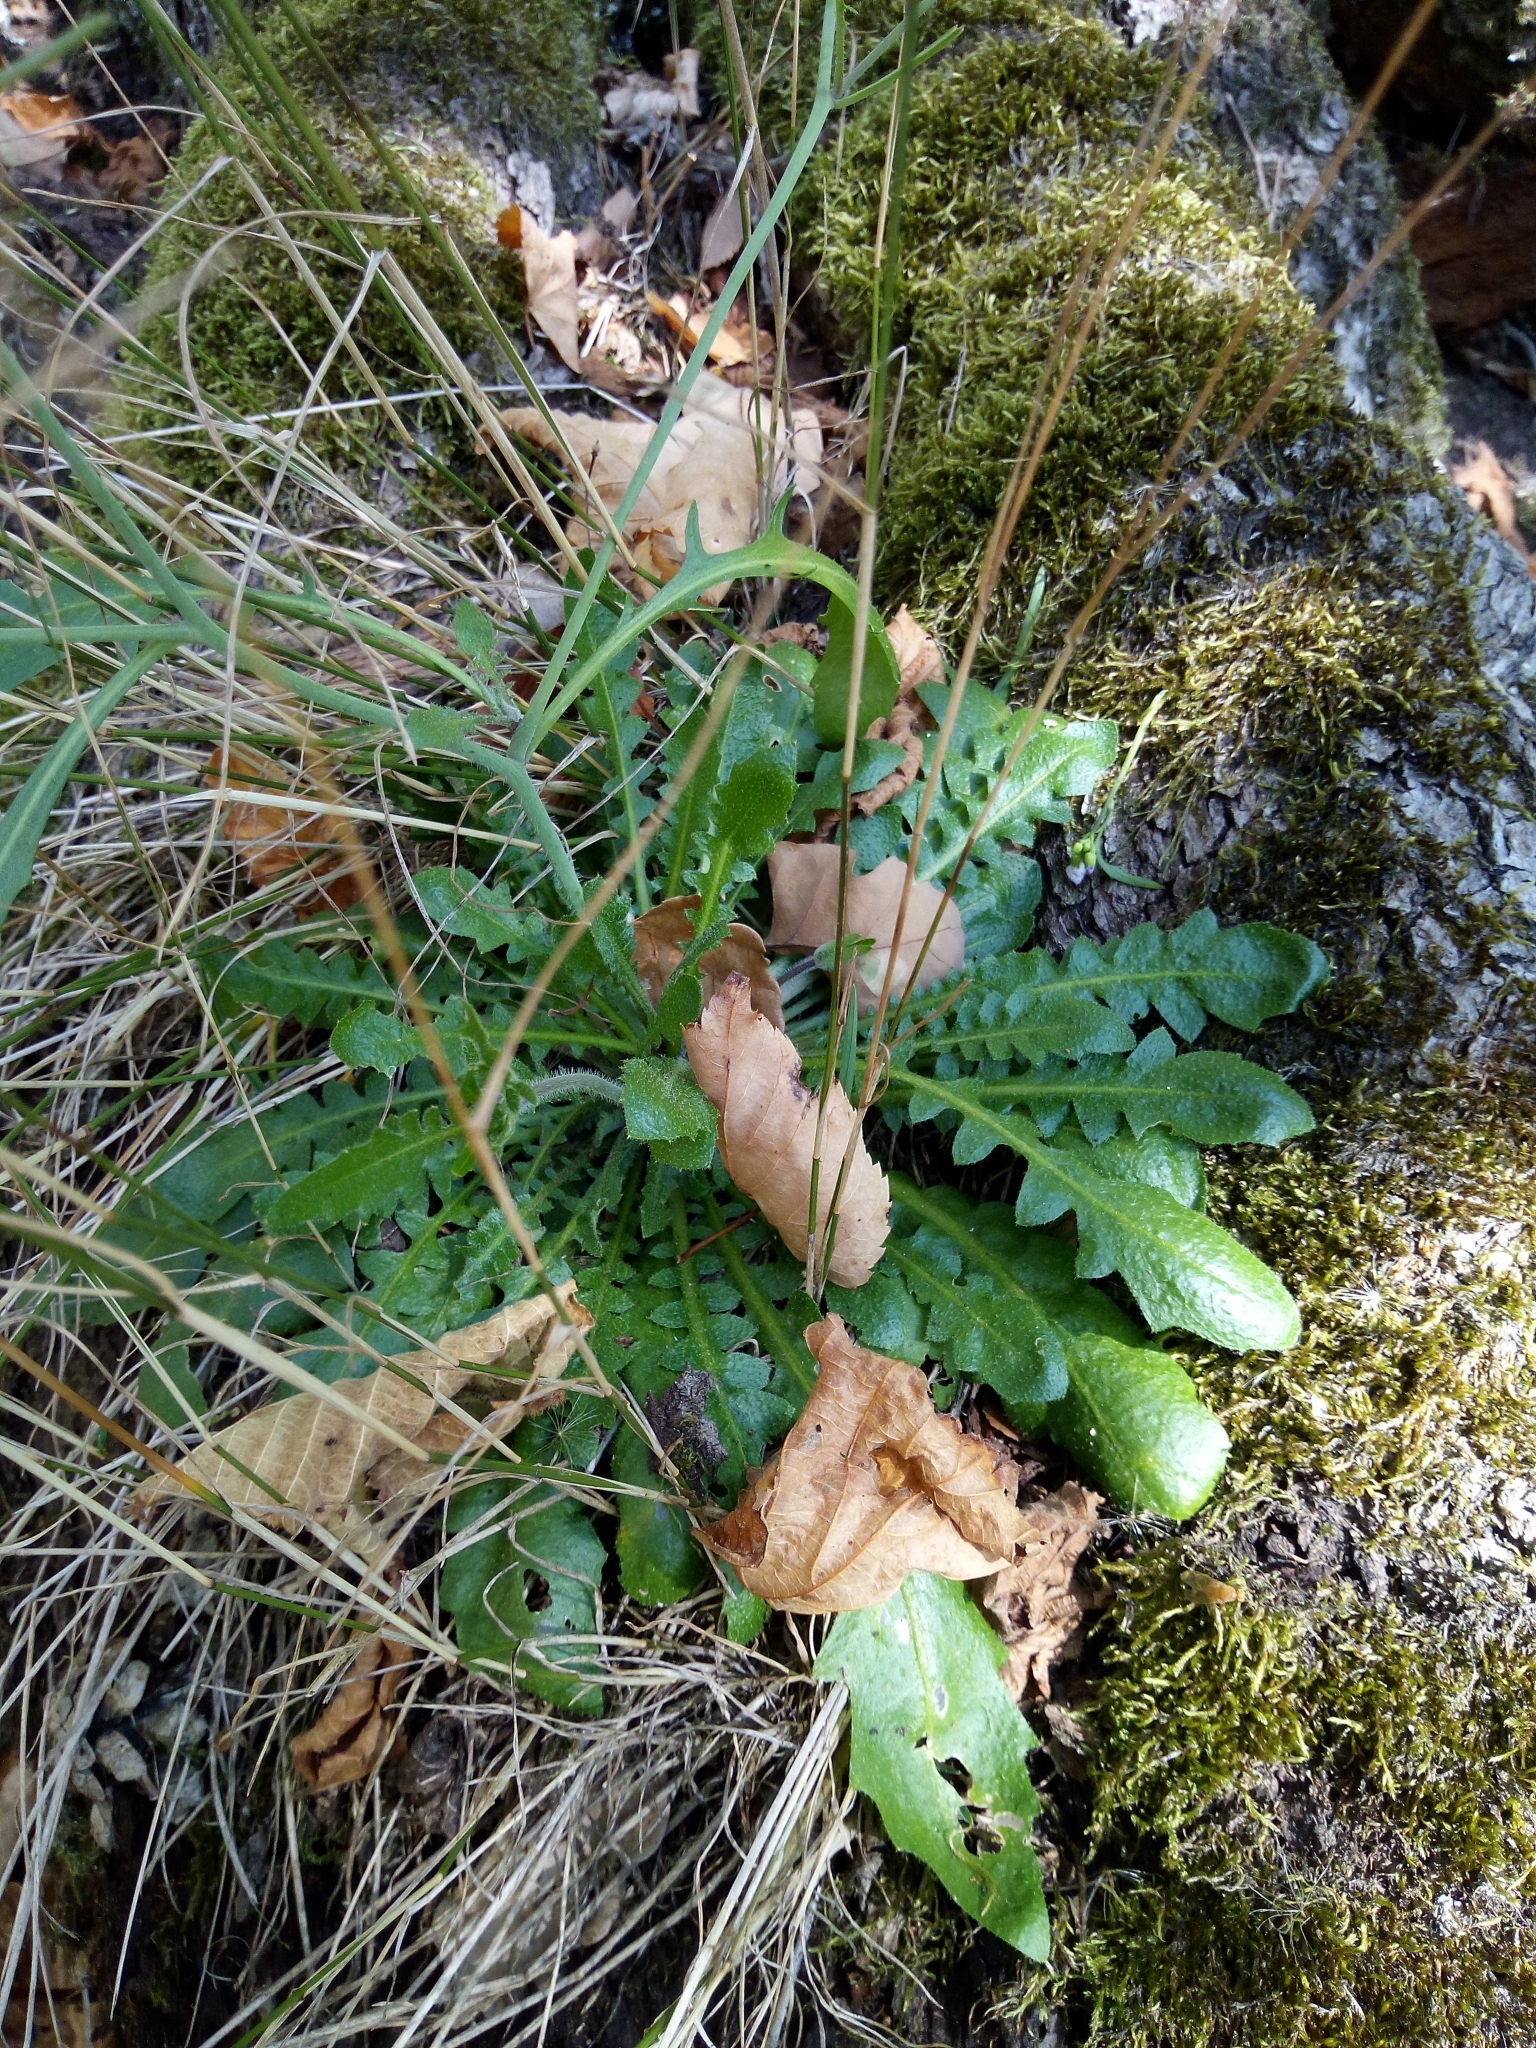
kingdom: Plantae
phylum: Tracheophyta
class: Magnoliopsida
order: Brassicales
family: Brassicaceae
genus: Arabidopsis
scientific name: Arabidopsis arenosa
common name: Sand rock-cress
